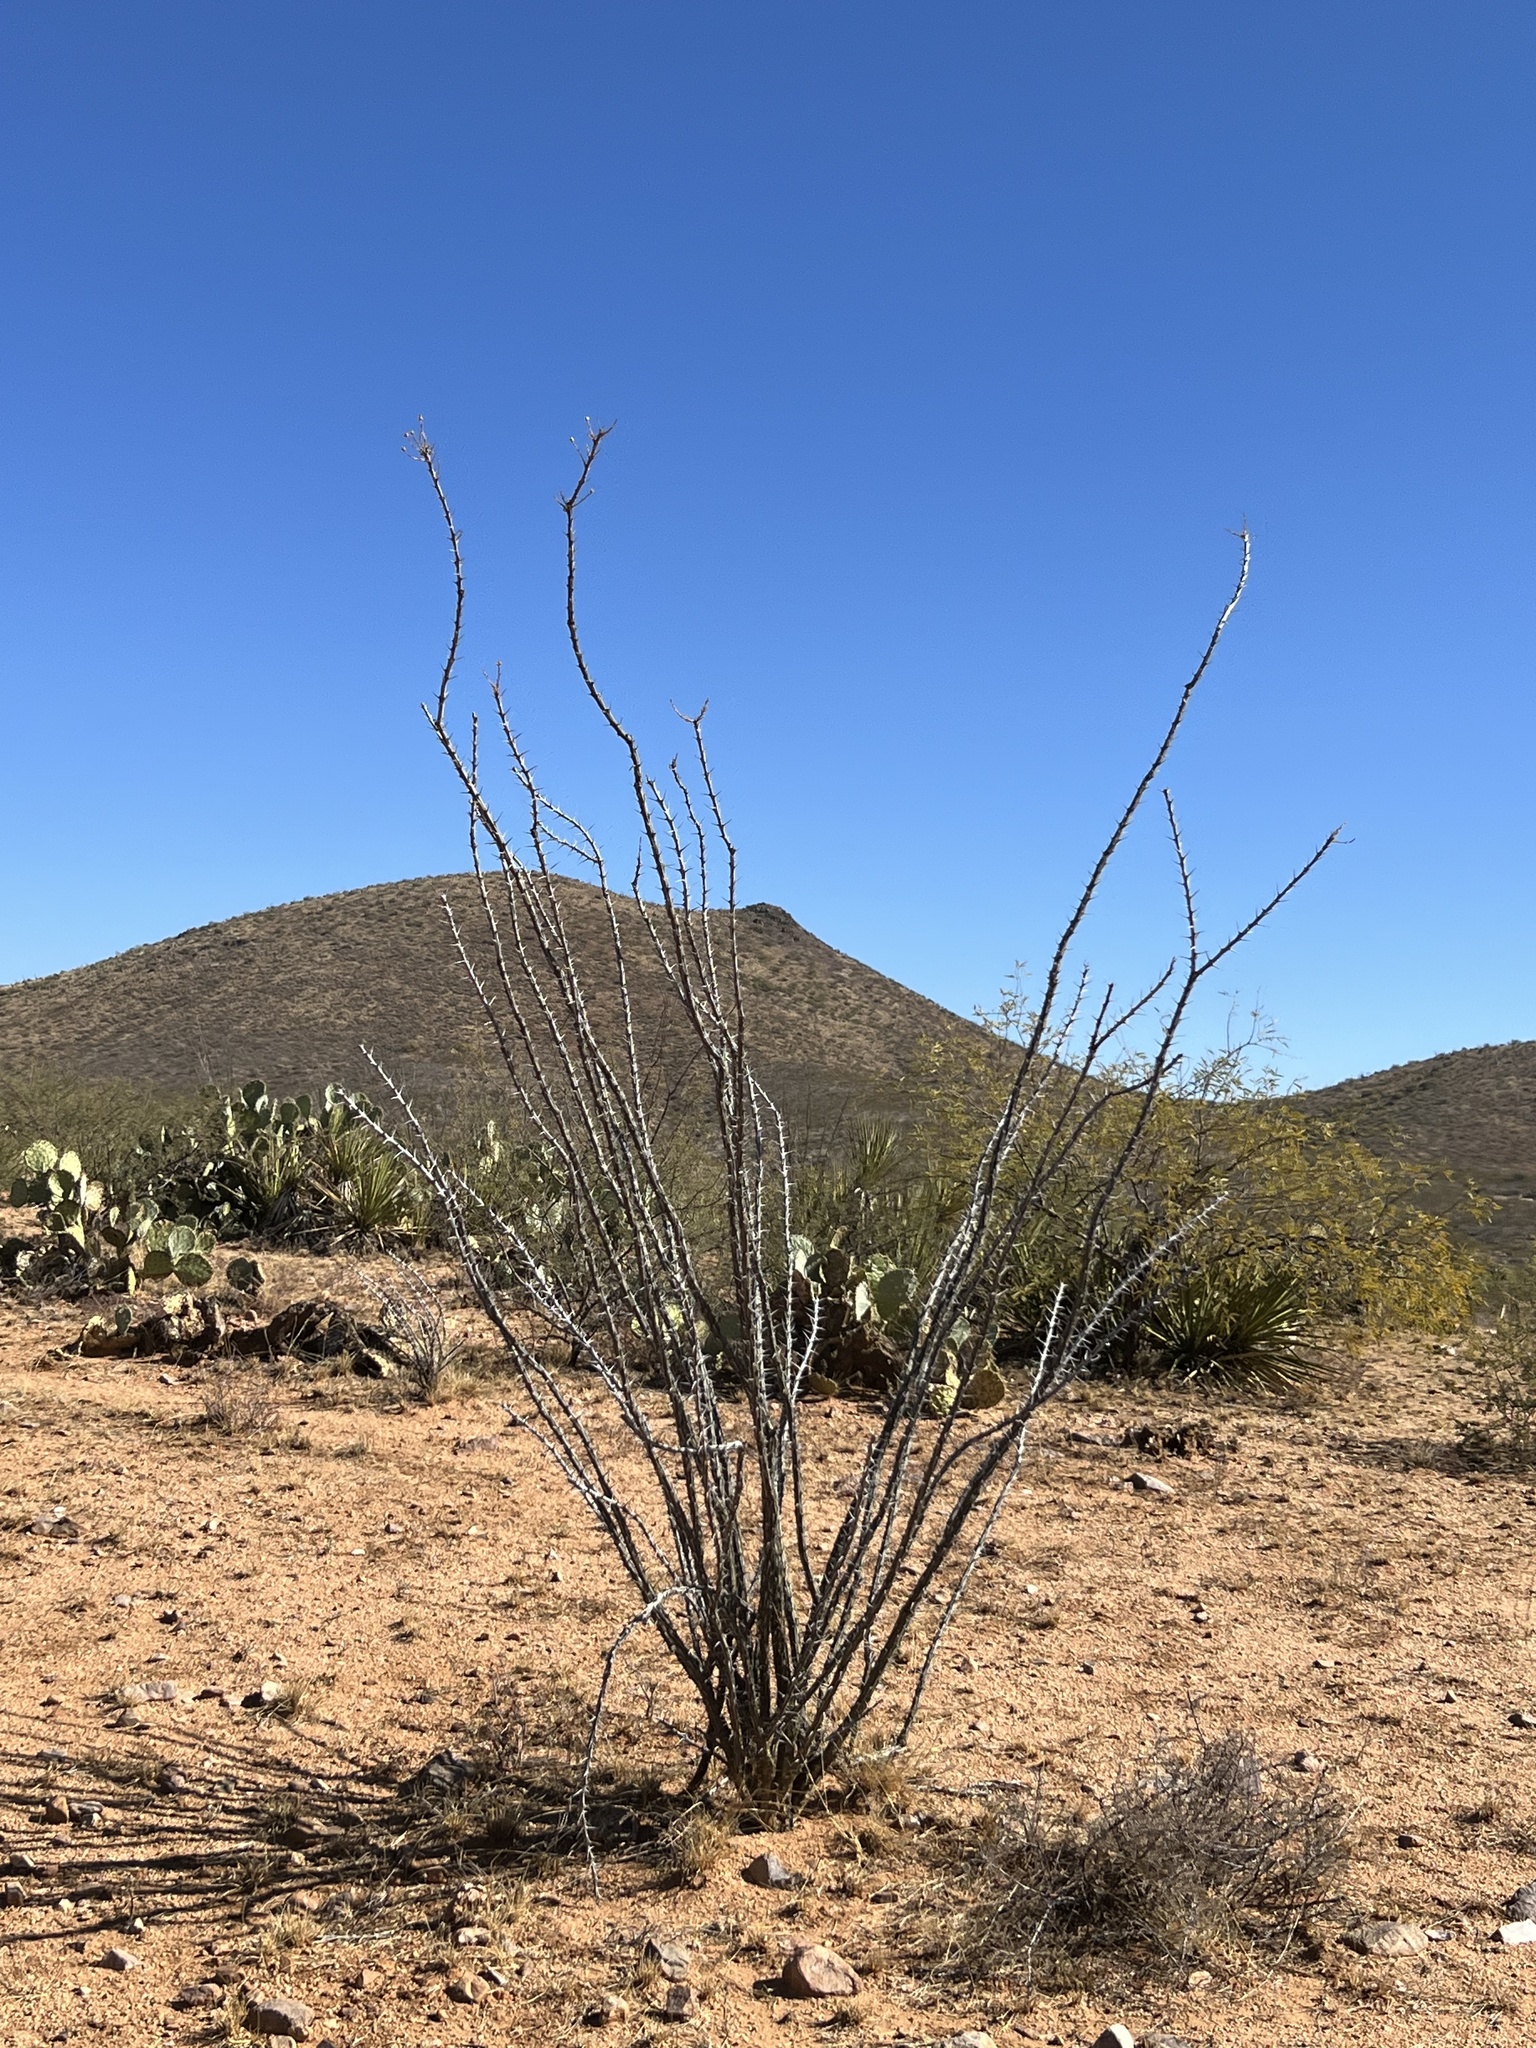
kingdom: Plantae
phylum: Tracheophyta
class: Magnoliopsida
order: Ericales
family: Fouquieriaceae
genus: Fouquieria
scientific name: Fouquieria splendens
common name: Vine-cactus
